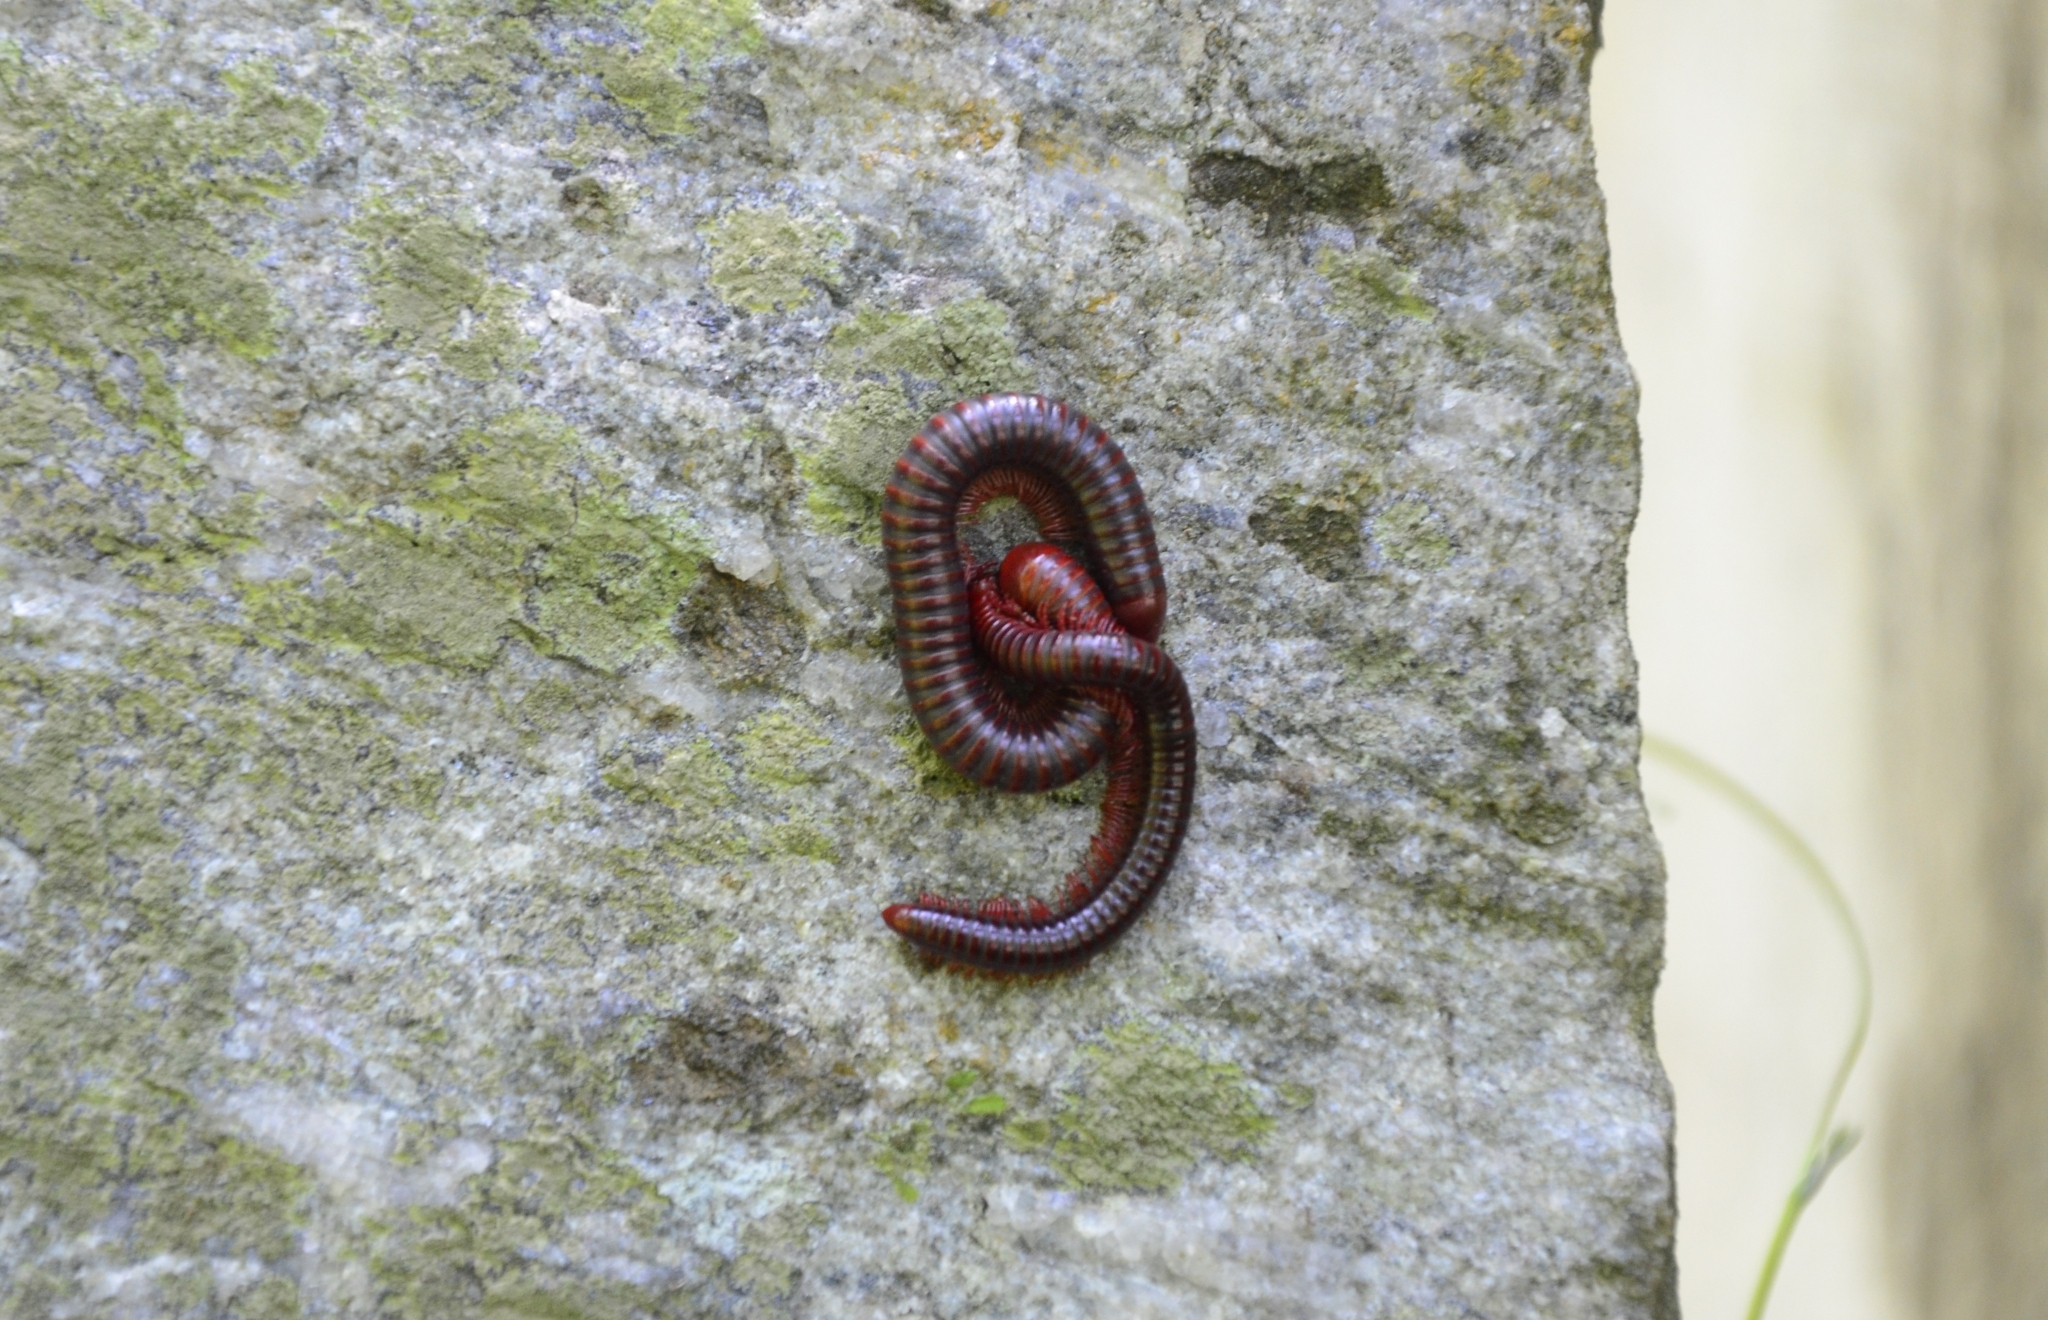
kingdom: Animalia
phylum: Arthropoda
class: Diplopoda
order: Spirobolida
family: Pachybolidae
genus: Trigoniulus
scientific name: Trigoniulus corallinus
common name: Millipede
